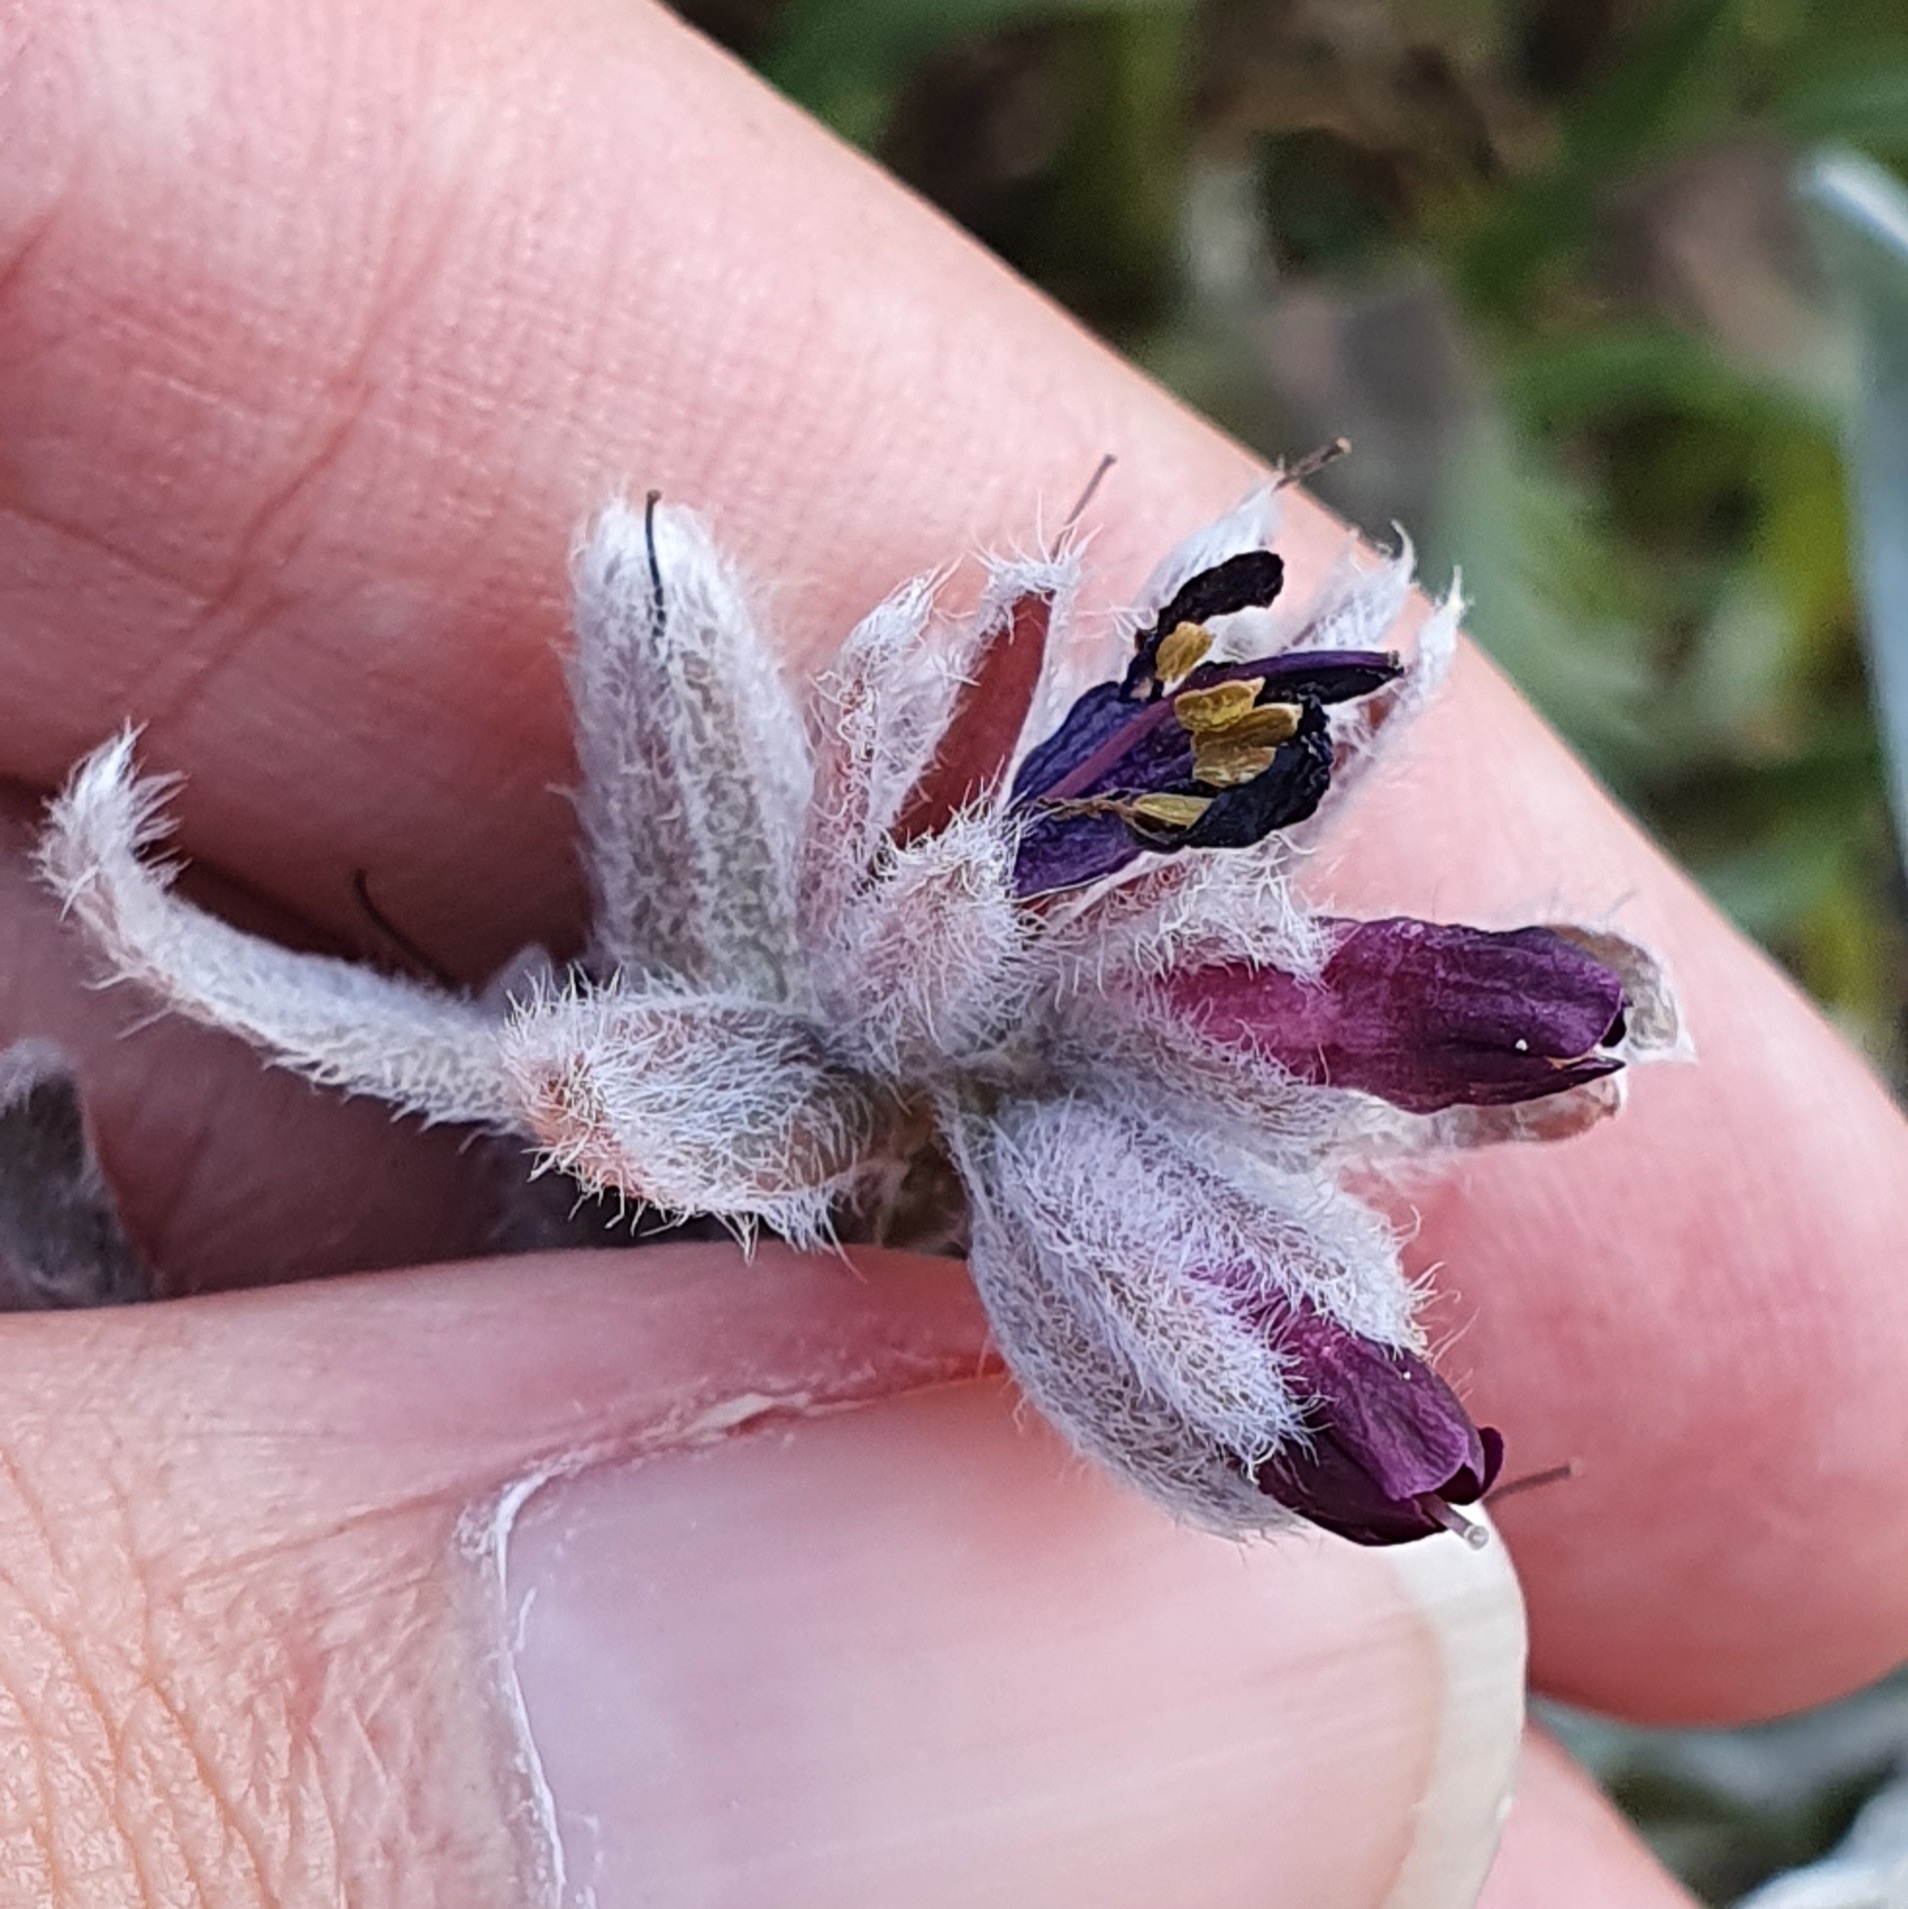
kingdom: Plantae
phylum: Tracheophyta
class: Magnoliopsida
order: Boraginales
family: Boraginaceae
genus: Pardoglossum
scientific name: Pardoglossum tubiflorum
